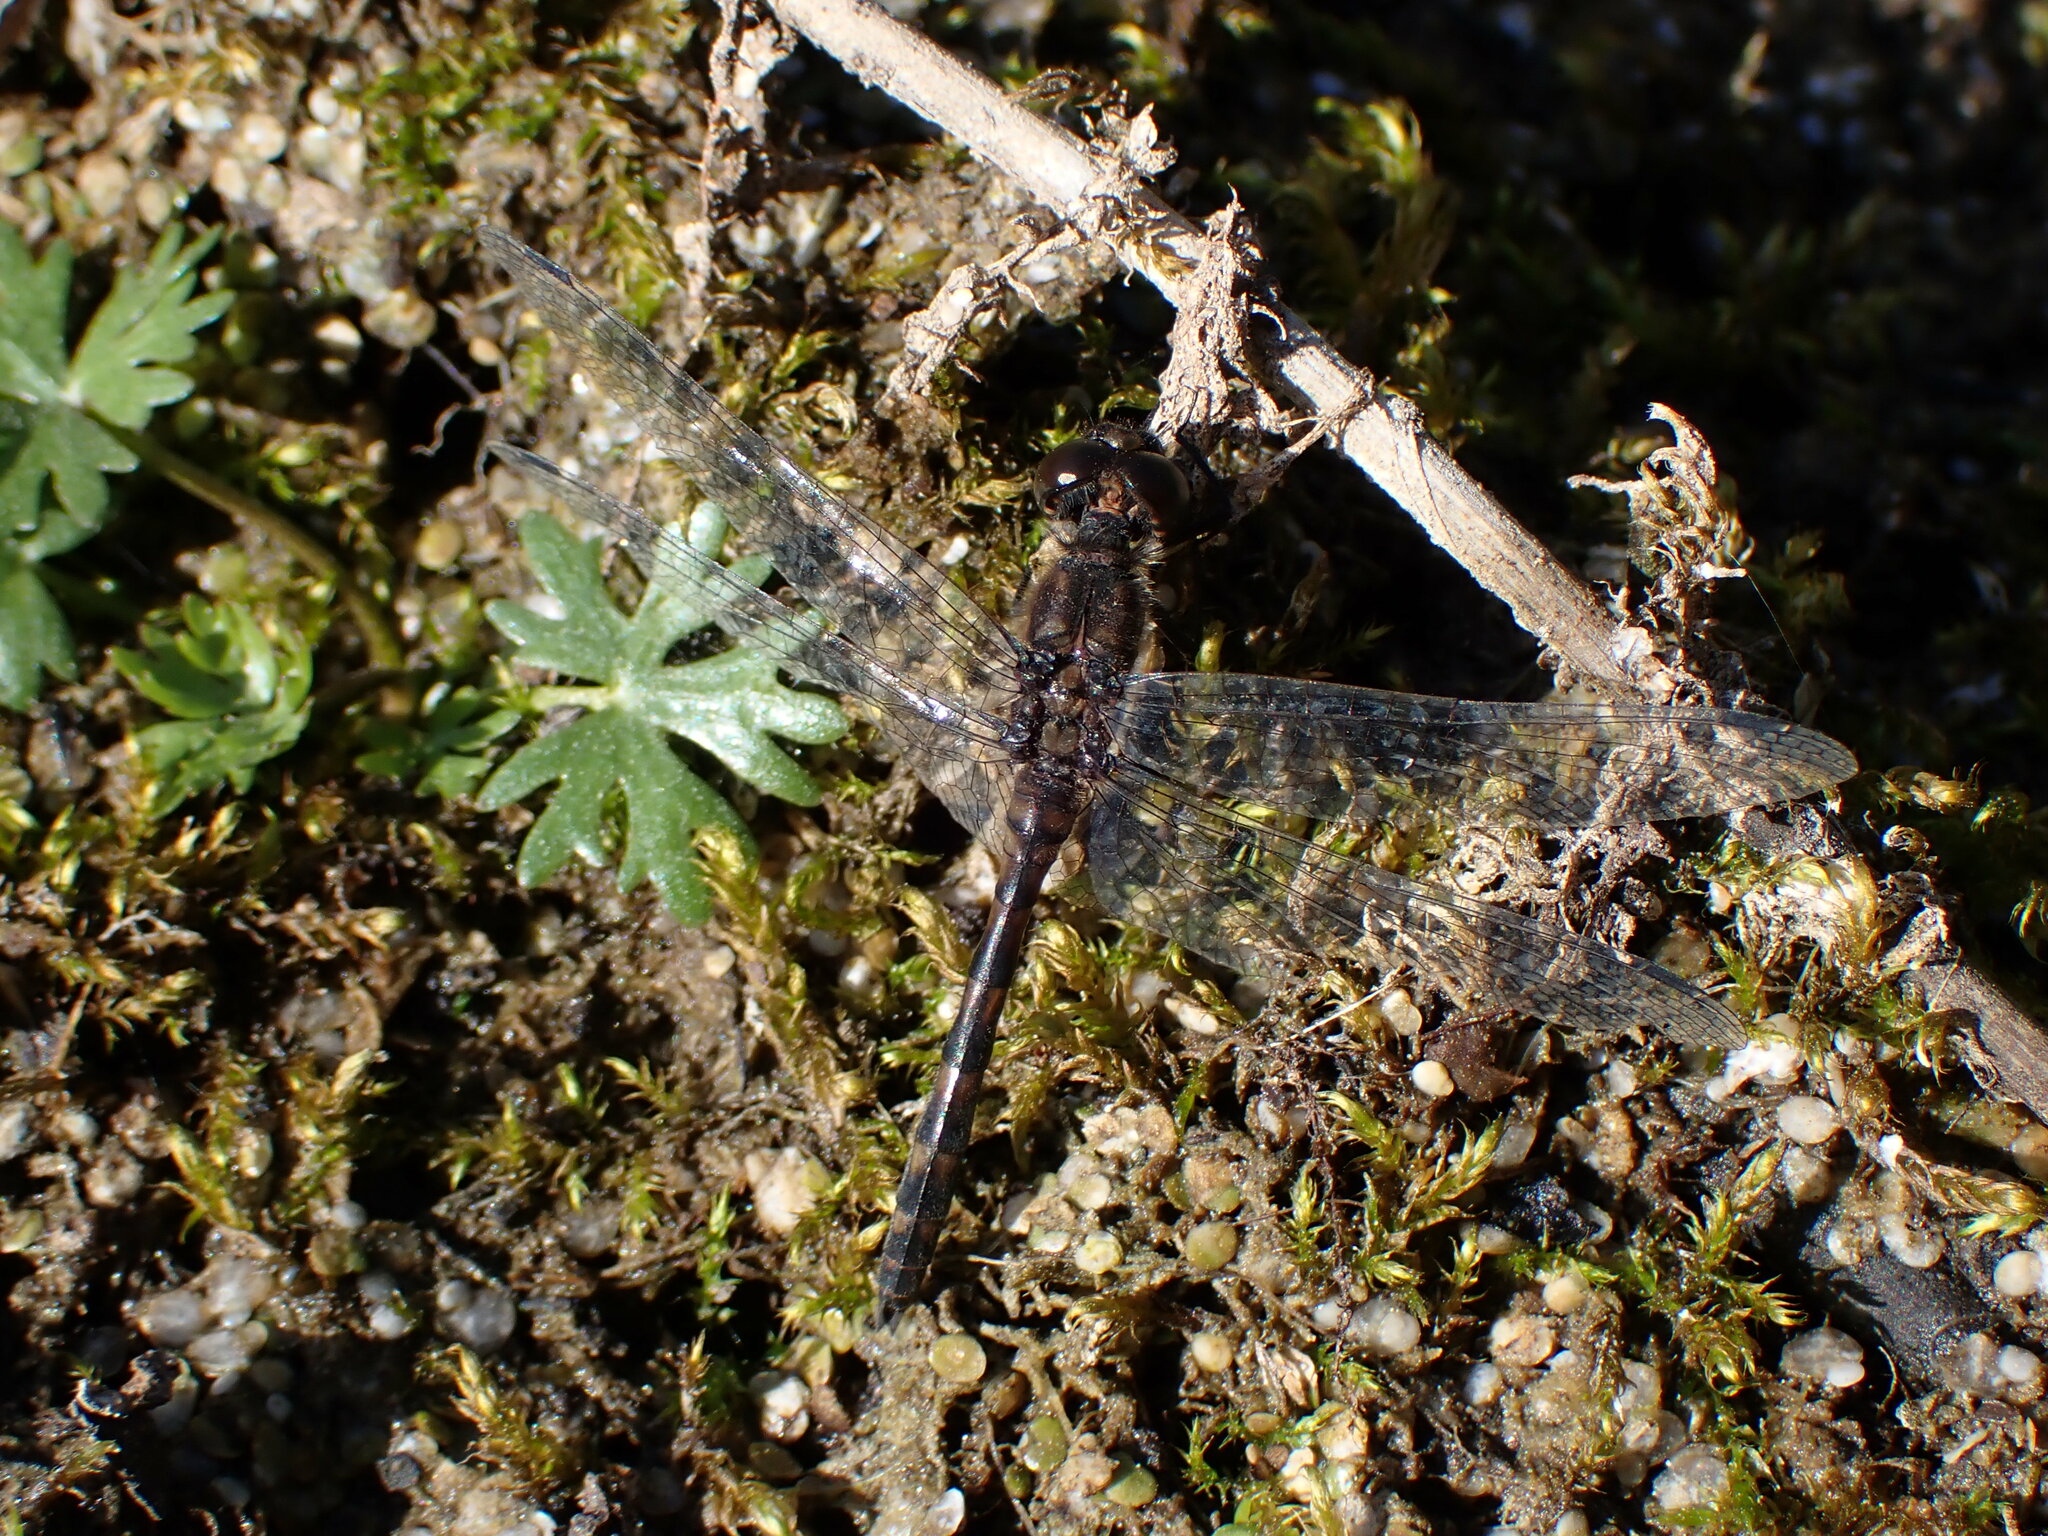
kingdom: Animalia
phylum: Arthropoda
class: Insecta
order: Odonata
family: Libellulidae
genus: Sympetrum
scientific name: Sympetrum danae
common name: Black darter
